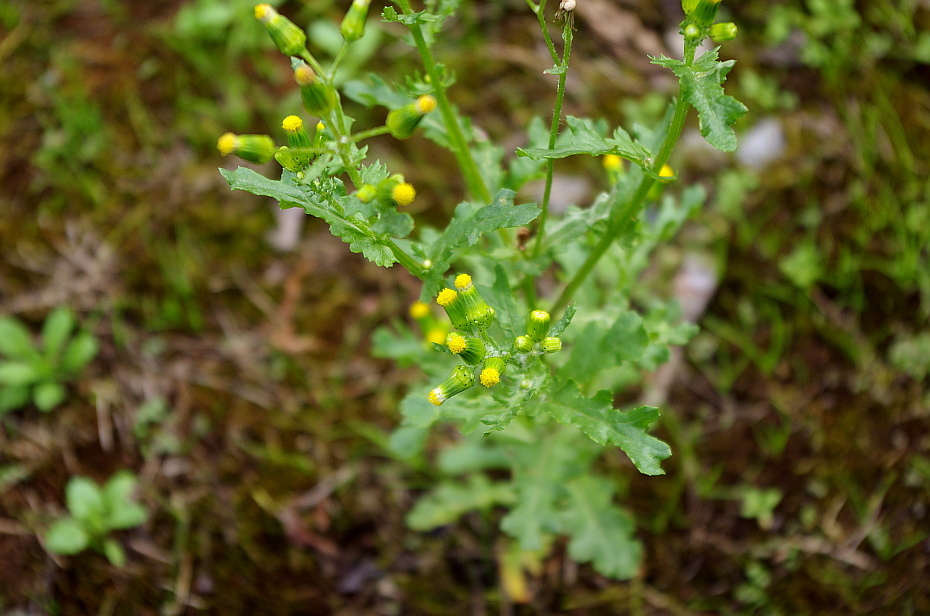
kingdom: Plantae
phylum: Tracheophyta
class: Magnoliopsida
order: Asterales
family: Asteraceae
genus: Senecio
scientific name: Senecio vulgaris
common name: Old-man-in-the-spring
